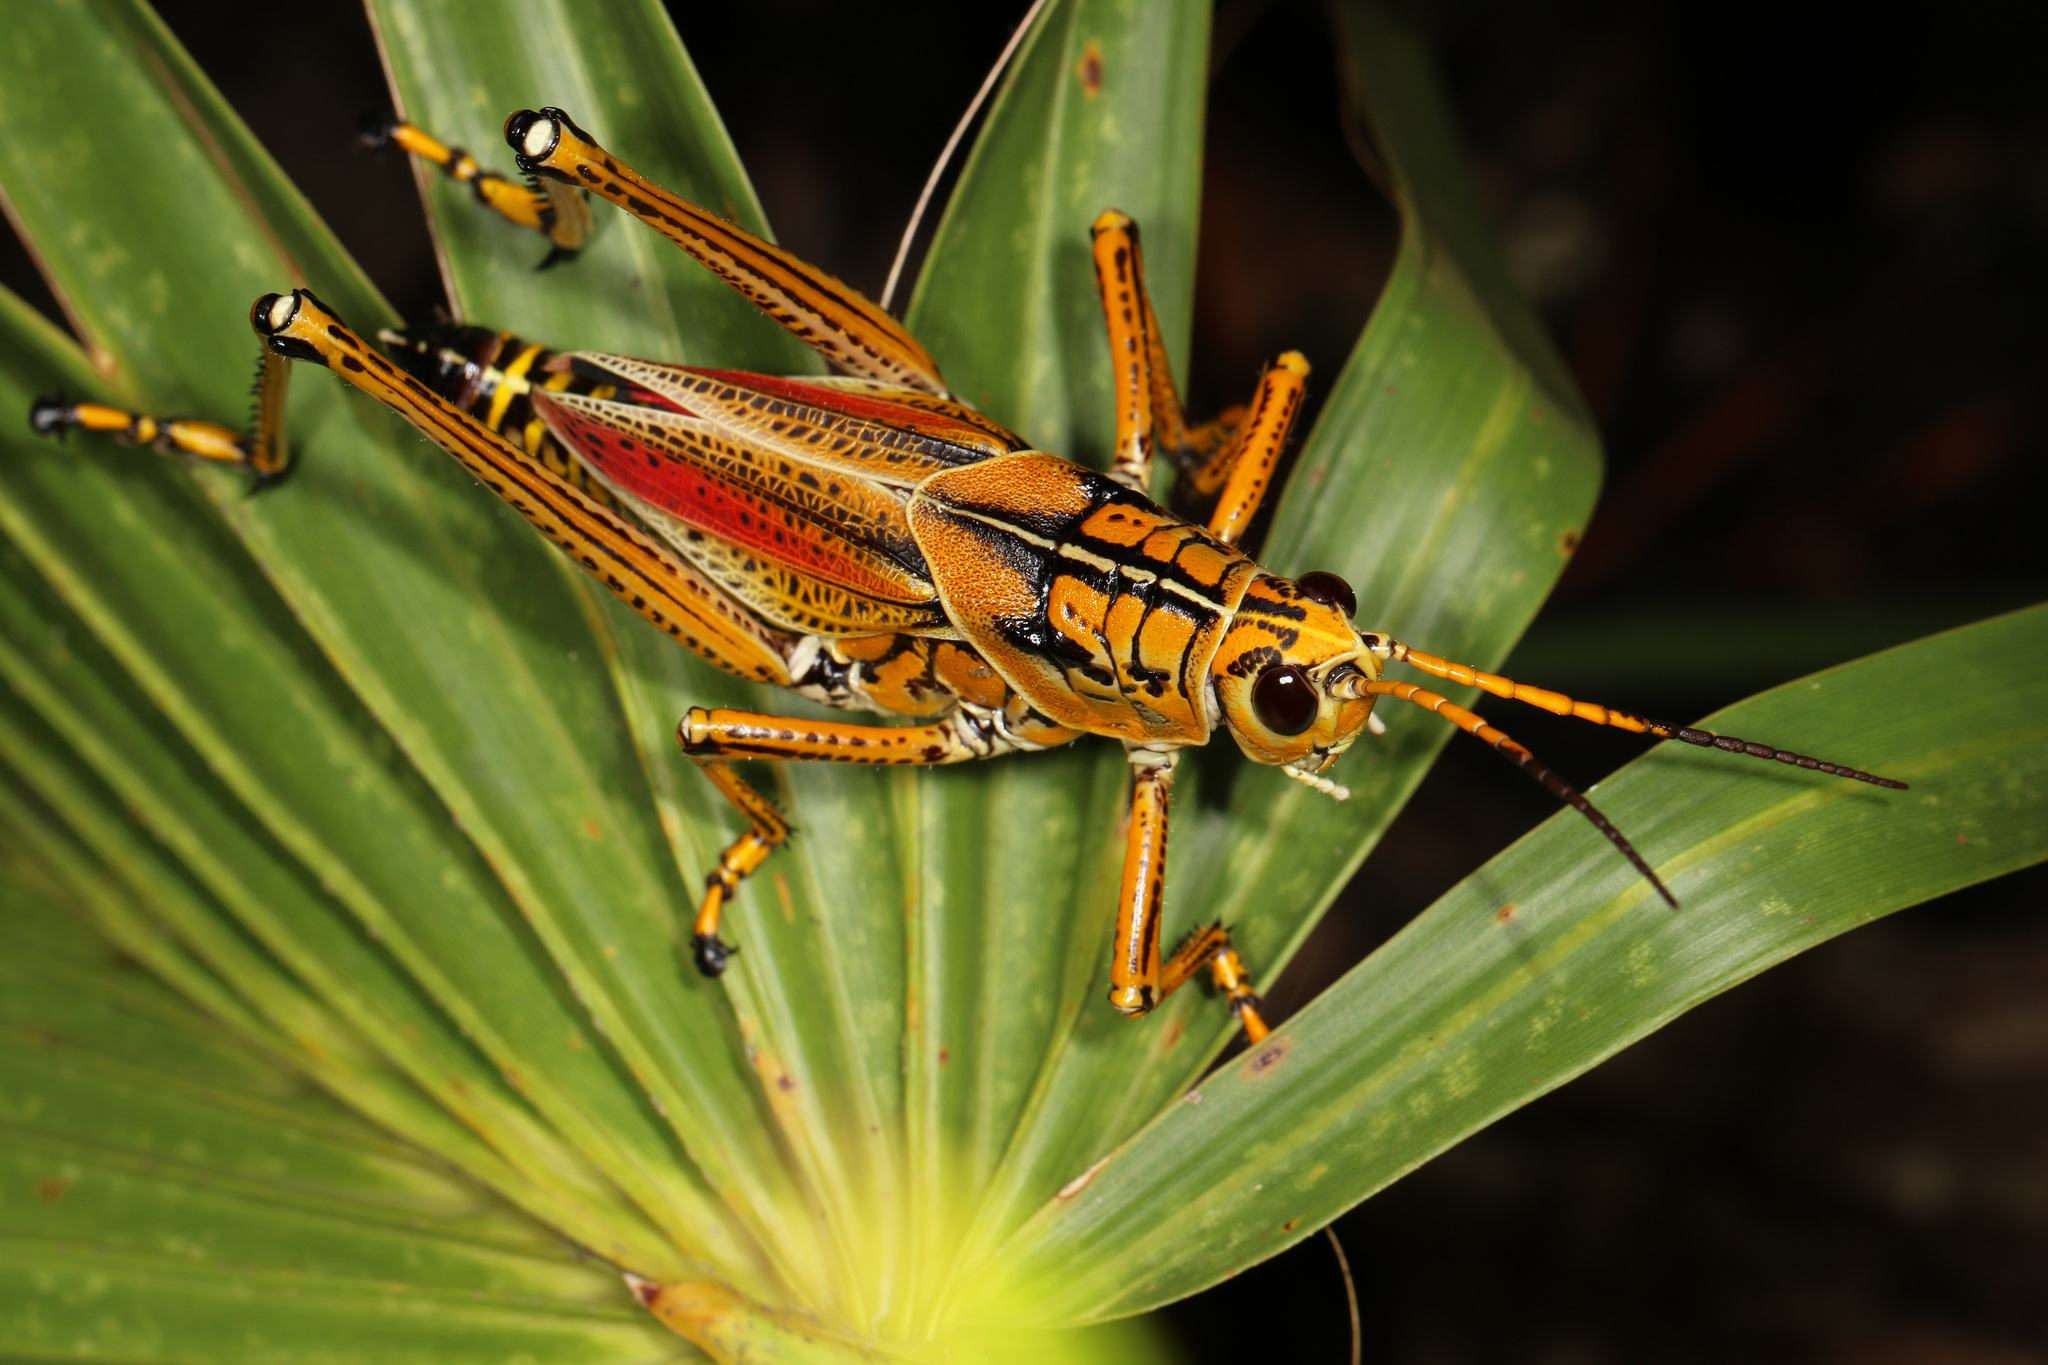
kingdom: Animalia
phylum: Arthropoda
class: Insecta
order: Orthoptera
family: Romaleidae
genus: Romalea
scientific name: Romalea microptera
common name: Eastern lubber grasshopper
